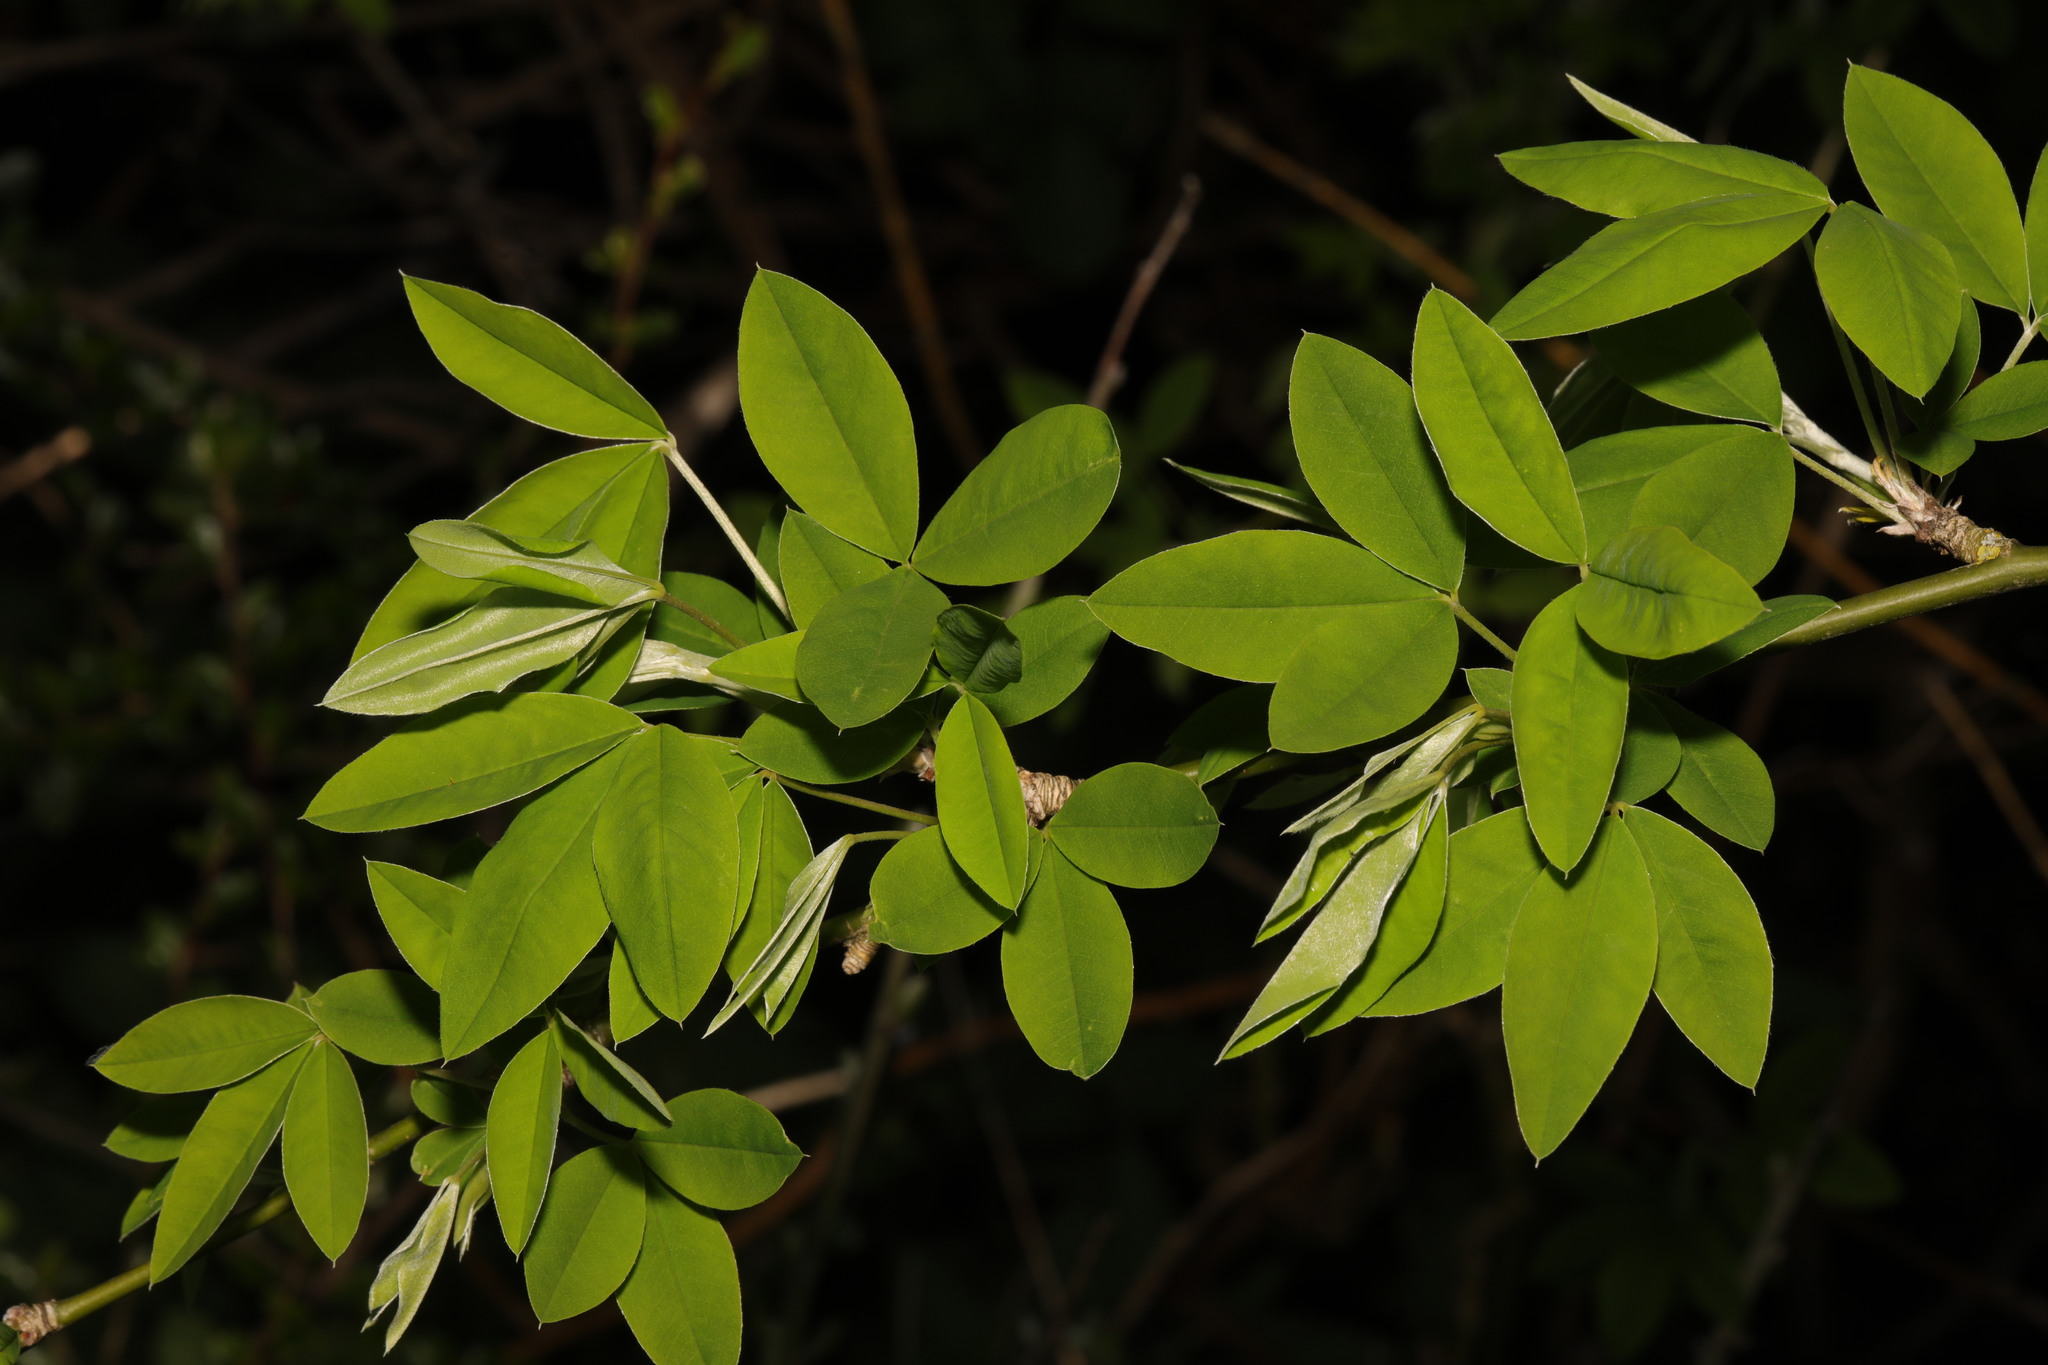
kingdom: Plantae
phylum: Tracheophyta
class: Magnoliopsida
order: Fabales
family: Fabaceae
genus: Laburnum
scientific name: Laburnum anagyroides
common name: Laburnum
